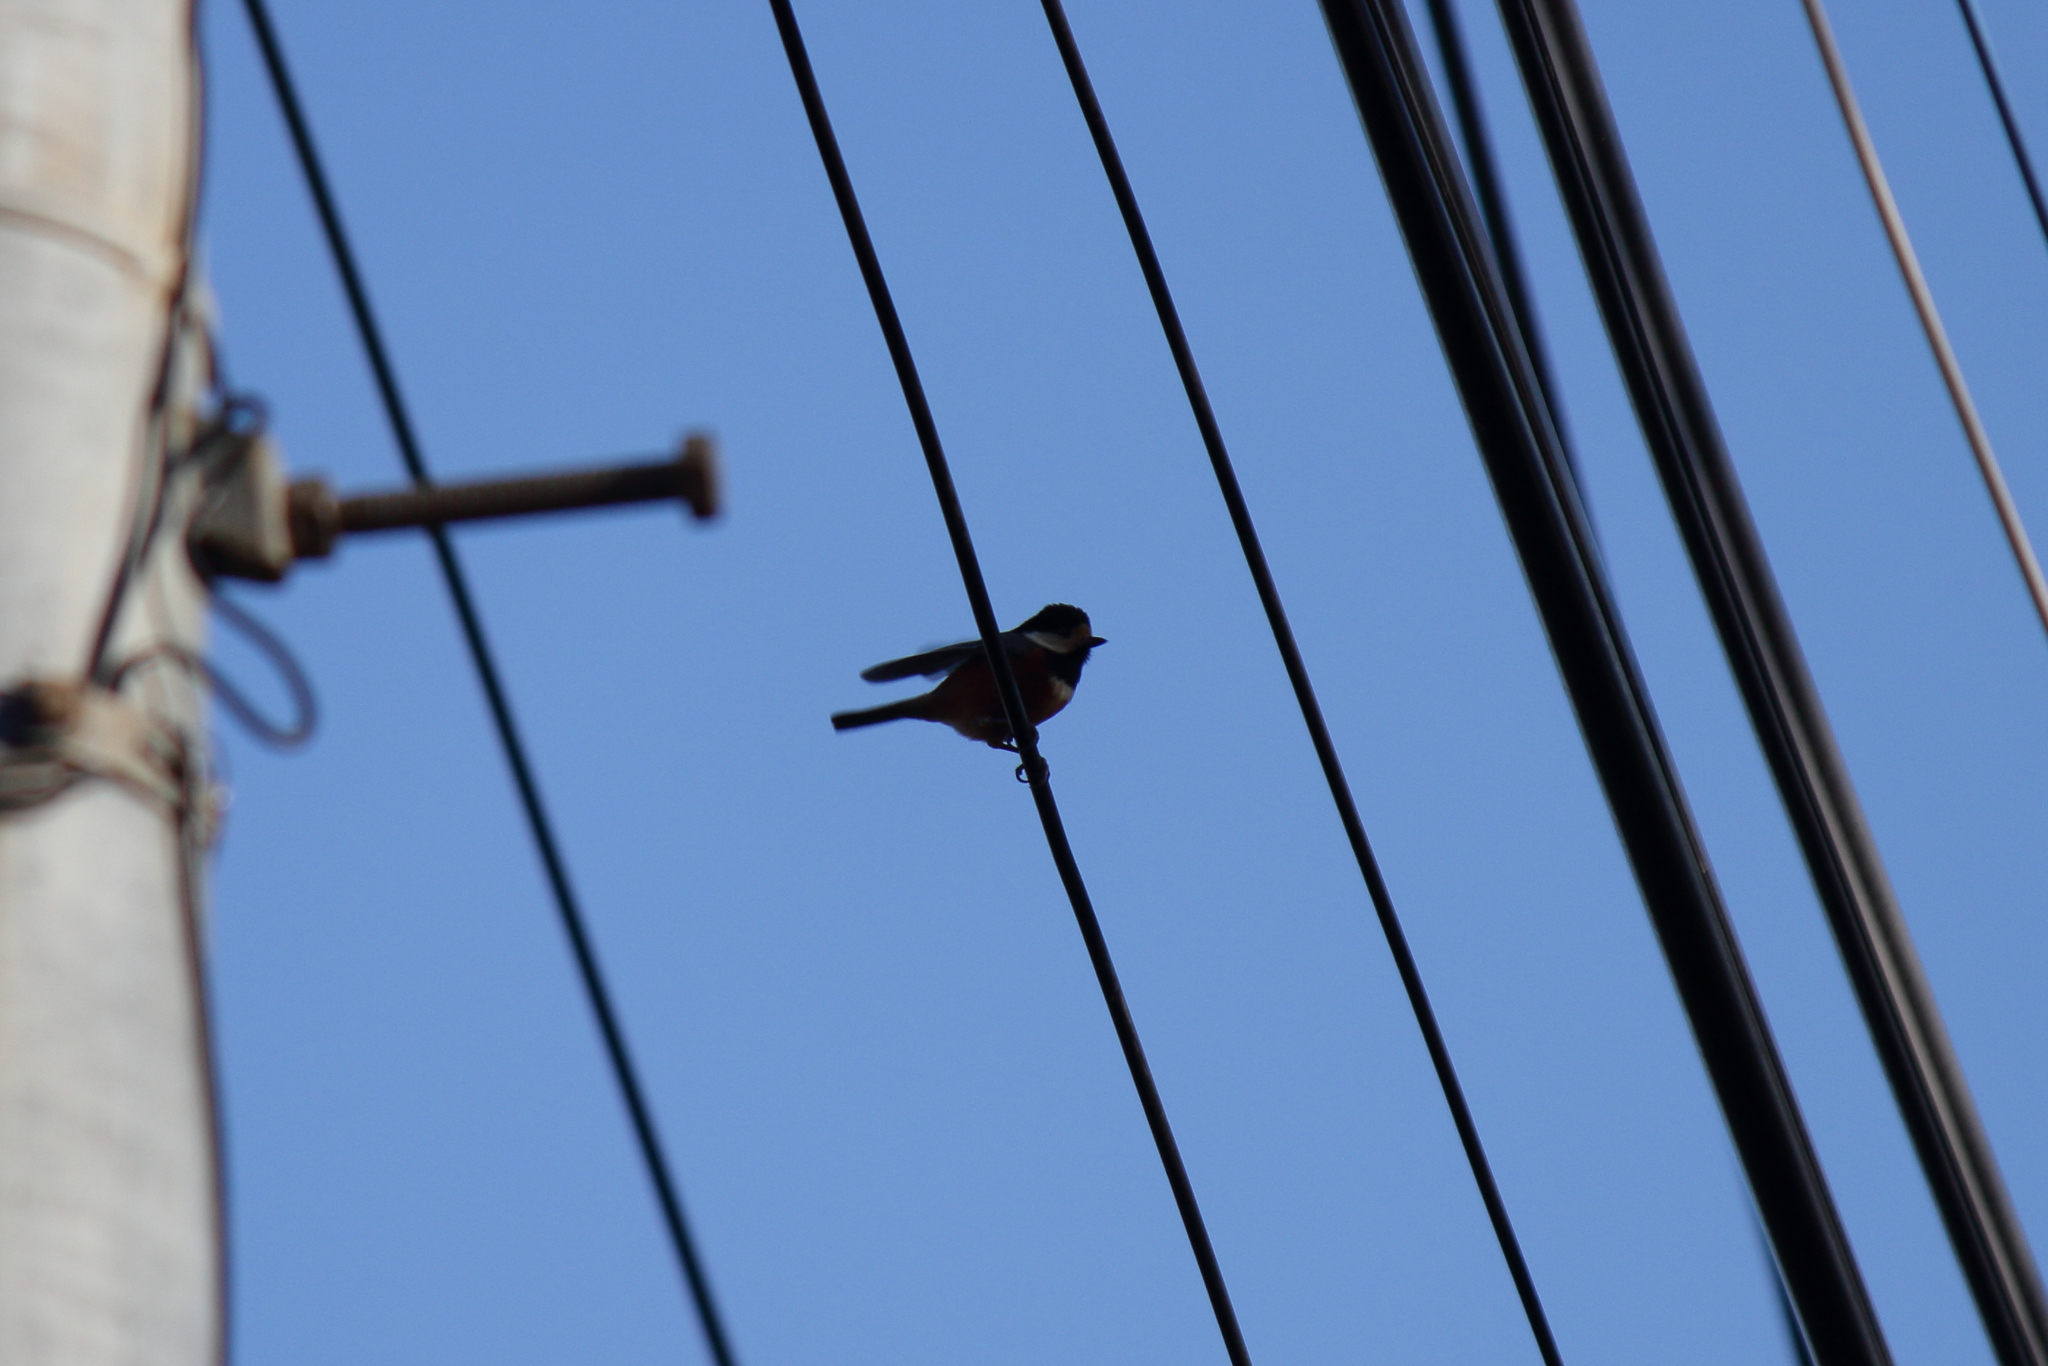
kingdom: Animalia
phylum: Chordata
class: Aves
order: Passeriformes
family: Paridae
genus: Poecile
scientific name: Poecile varius
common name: Varied tit
